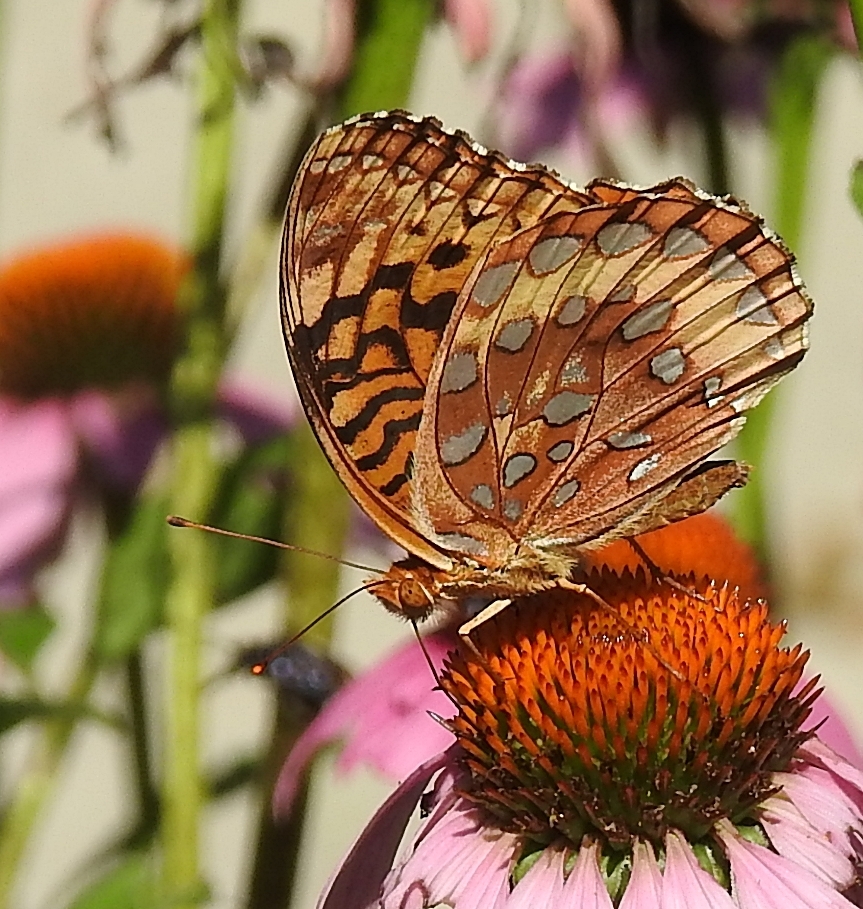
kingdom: Animalia
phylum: Arthropoda
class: Insecta
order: Lepidoptera
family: Nymphalidae
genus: Speyeria
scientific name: Speyeria cybele
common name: Great spangled fritillary
